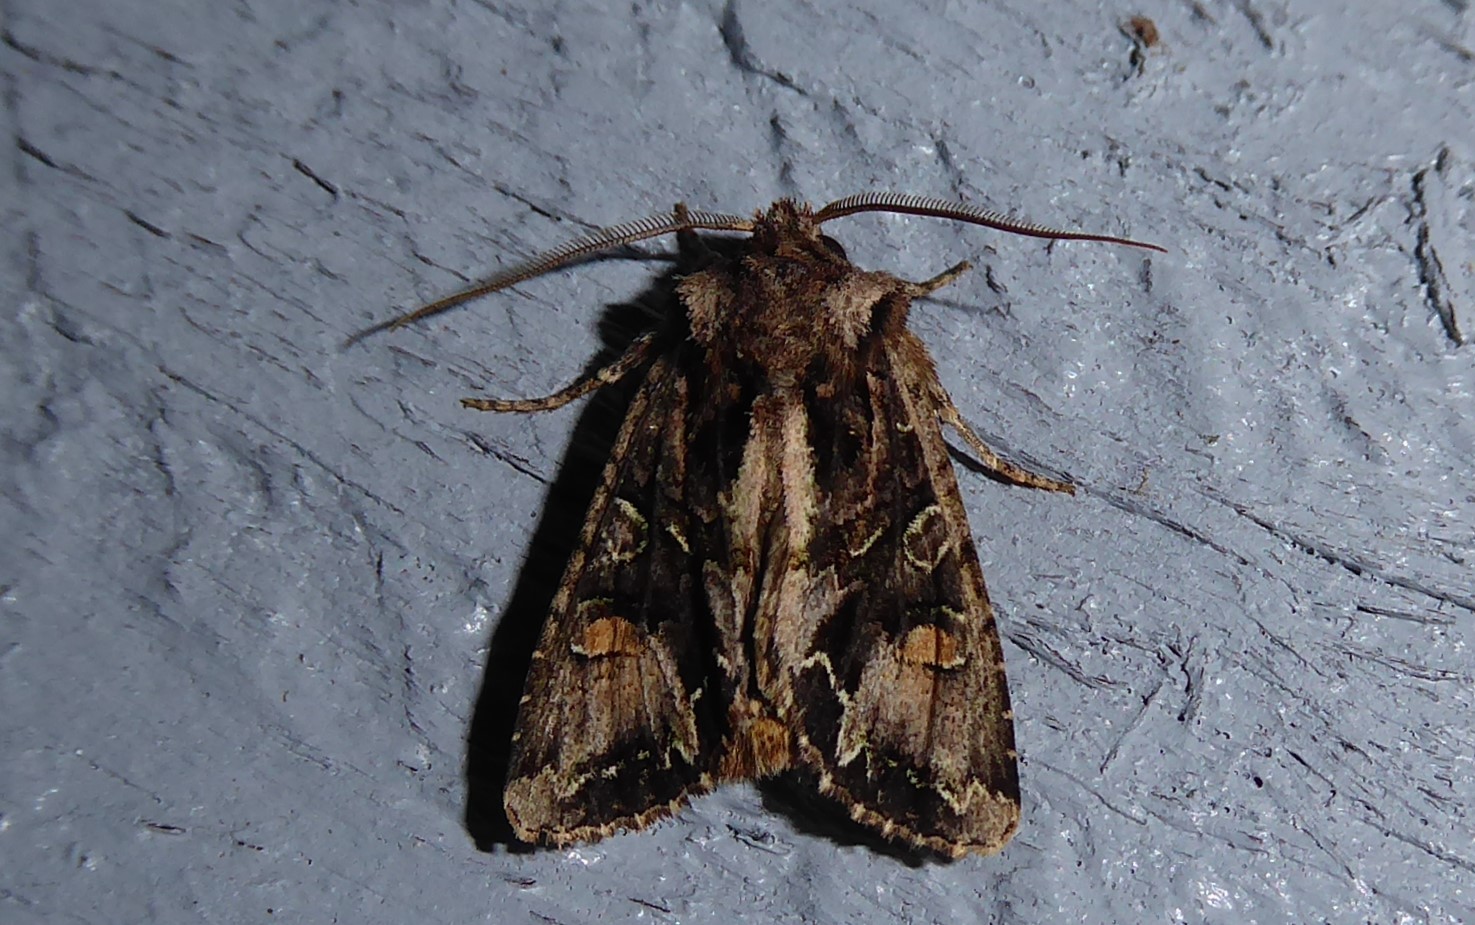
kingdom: Animalia
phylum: Arthropoda
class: Insecta
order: Lepidoptera
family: Noctuidae
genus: Ichneutica
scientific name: Ichneutica insignis
